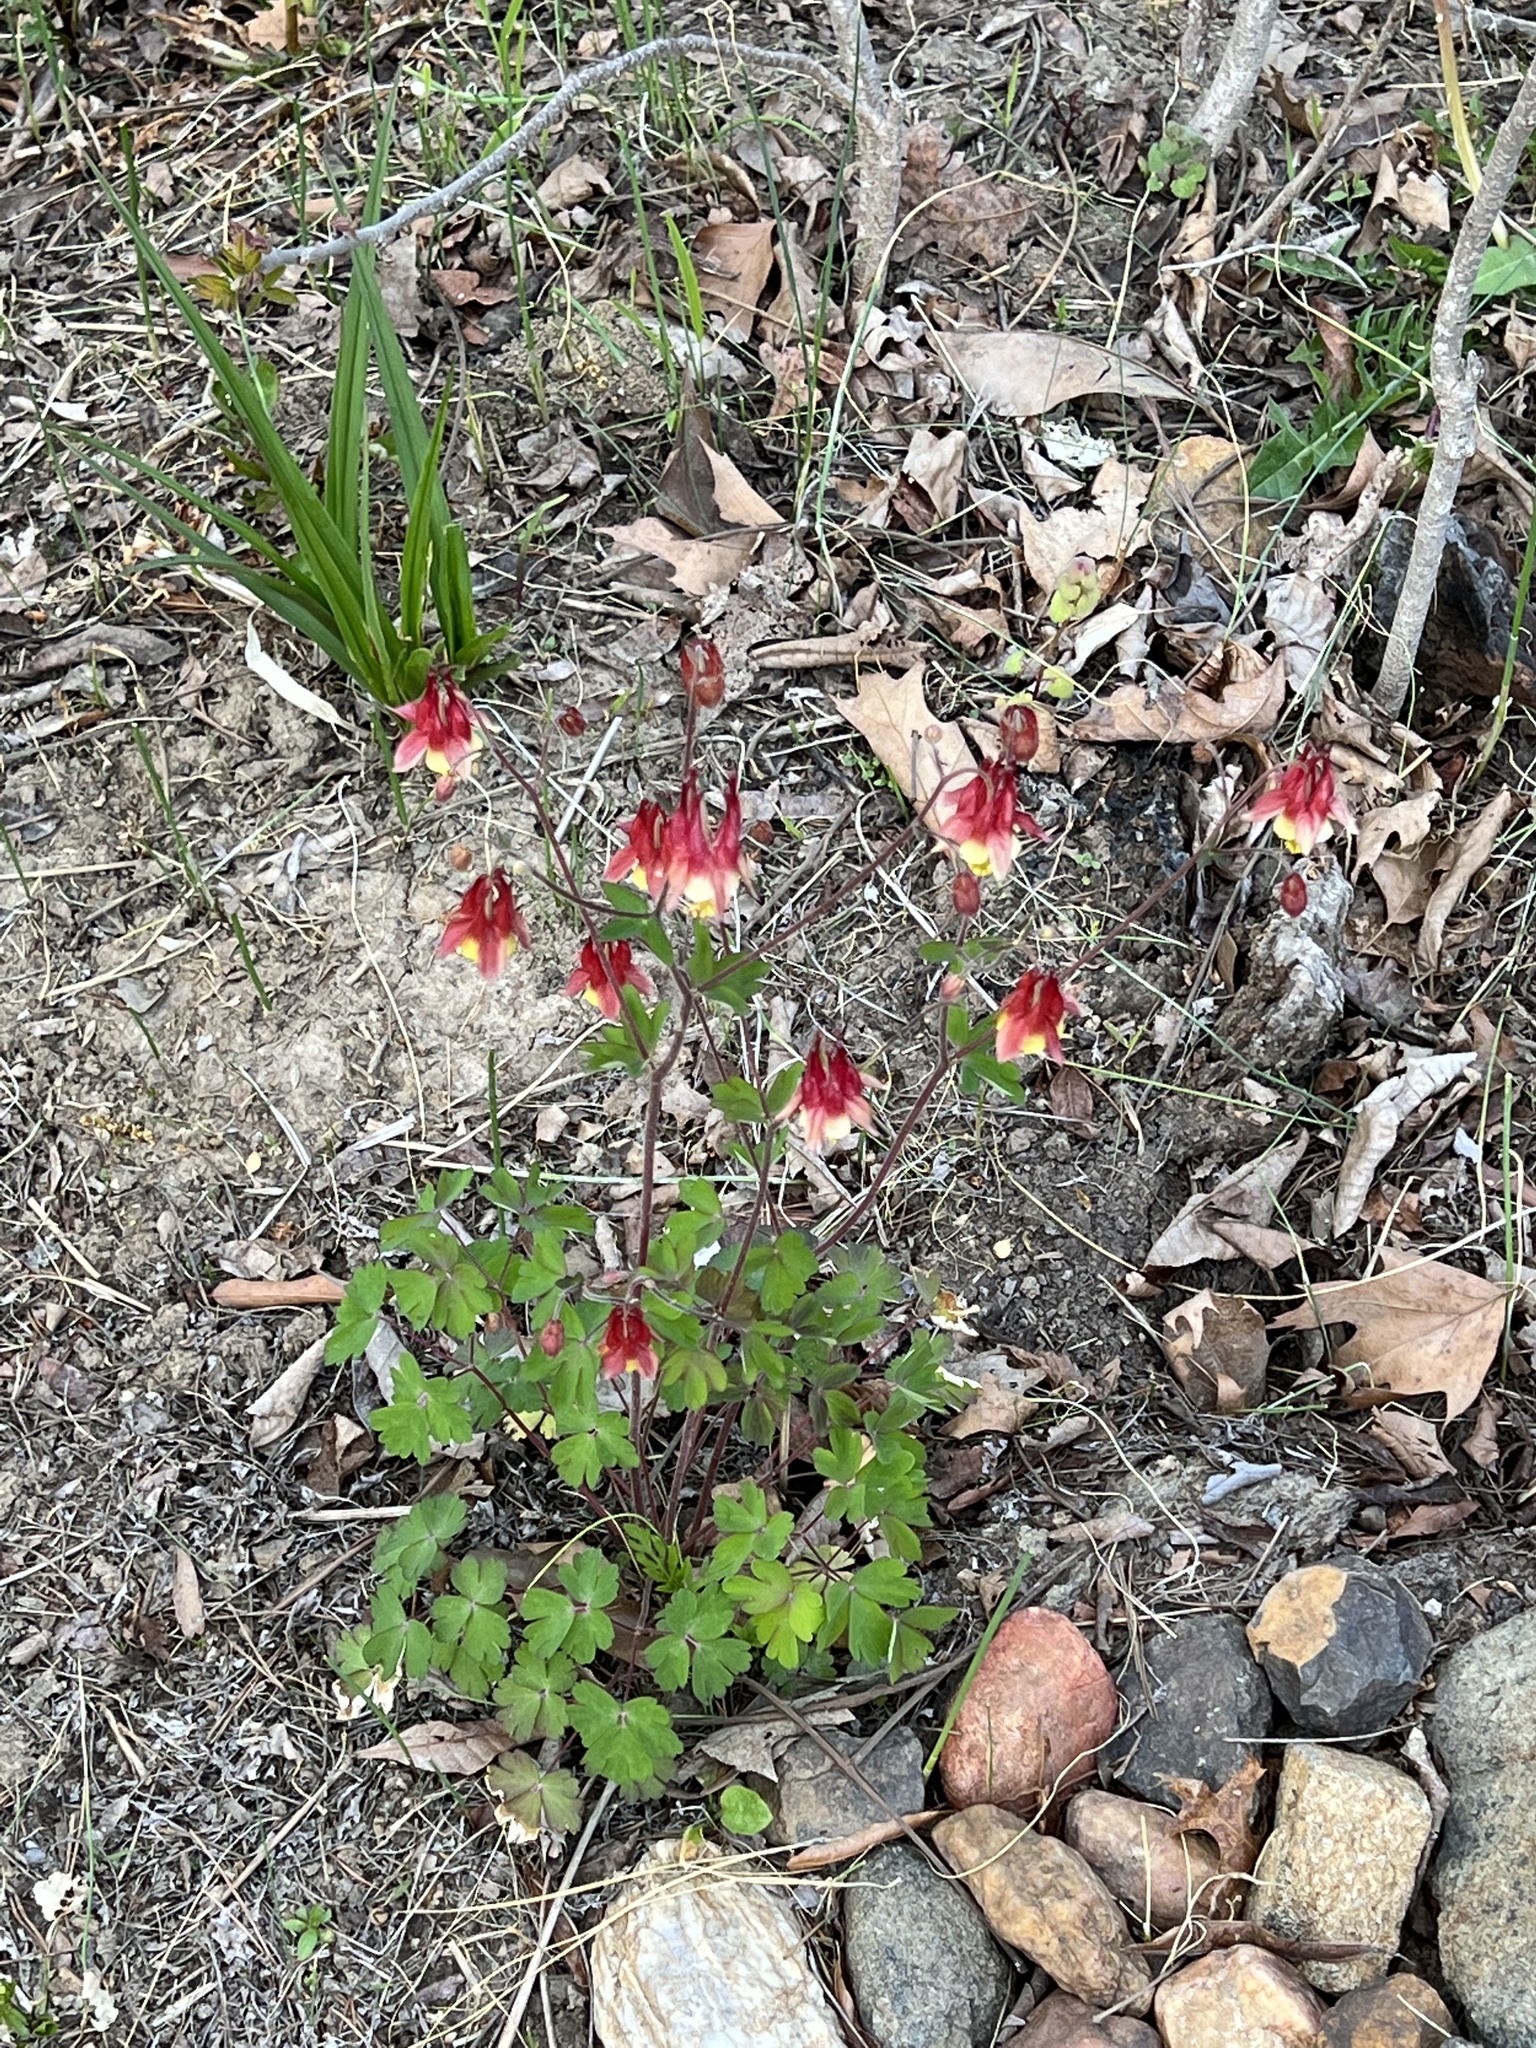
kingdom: Plantae
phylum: Tracheophyta
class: Magnoliopsida
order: Ranunculales
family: Ranunculaceae
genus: Aquilegia
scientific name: Aquilegia canadensis
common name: American columbine
